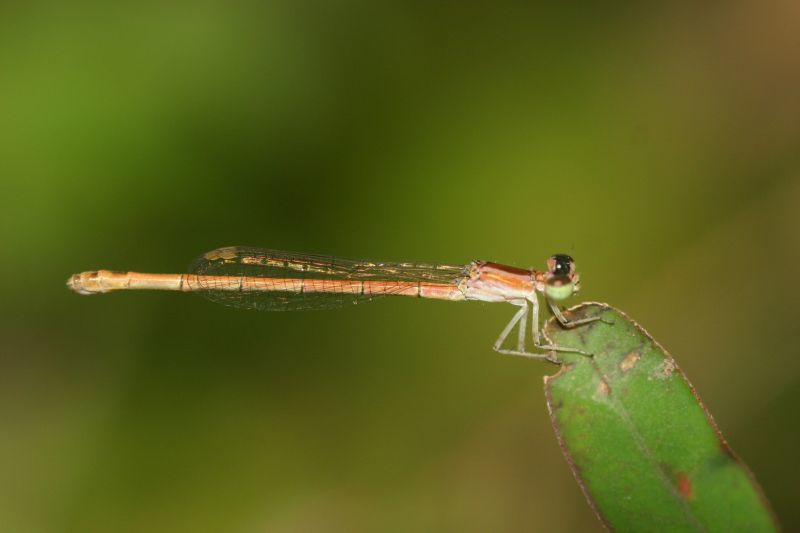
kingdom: Animalia
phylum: Arthropoda
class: Insecta
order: Odonata
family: Coenagrionidae
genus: Agriocnemis
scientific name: Agriocnemis pygmaea
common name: Pygmy wisp
